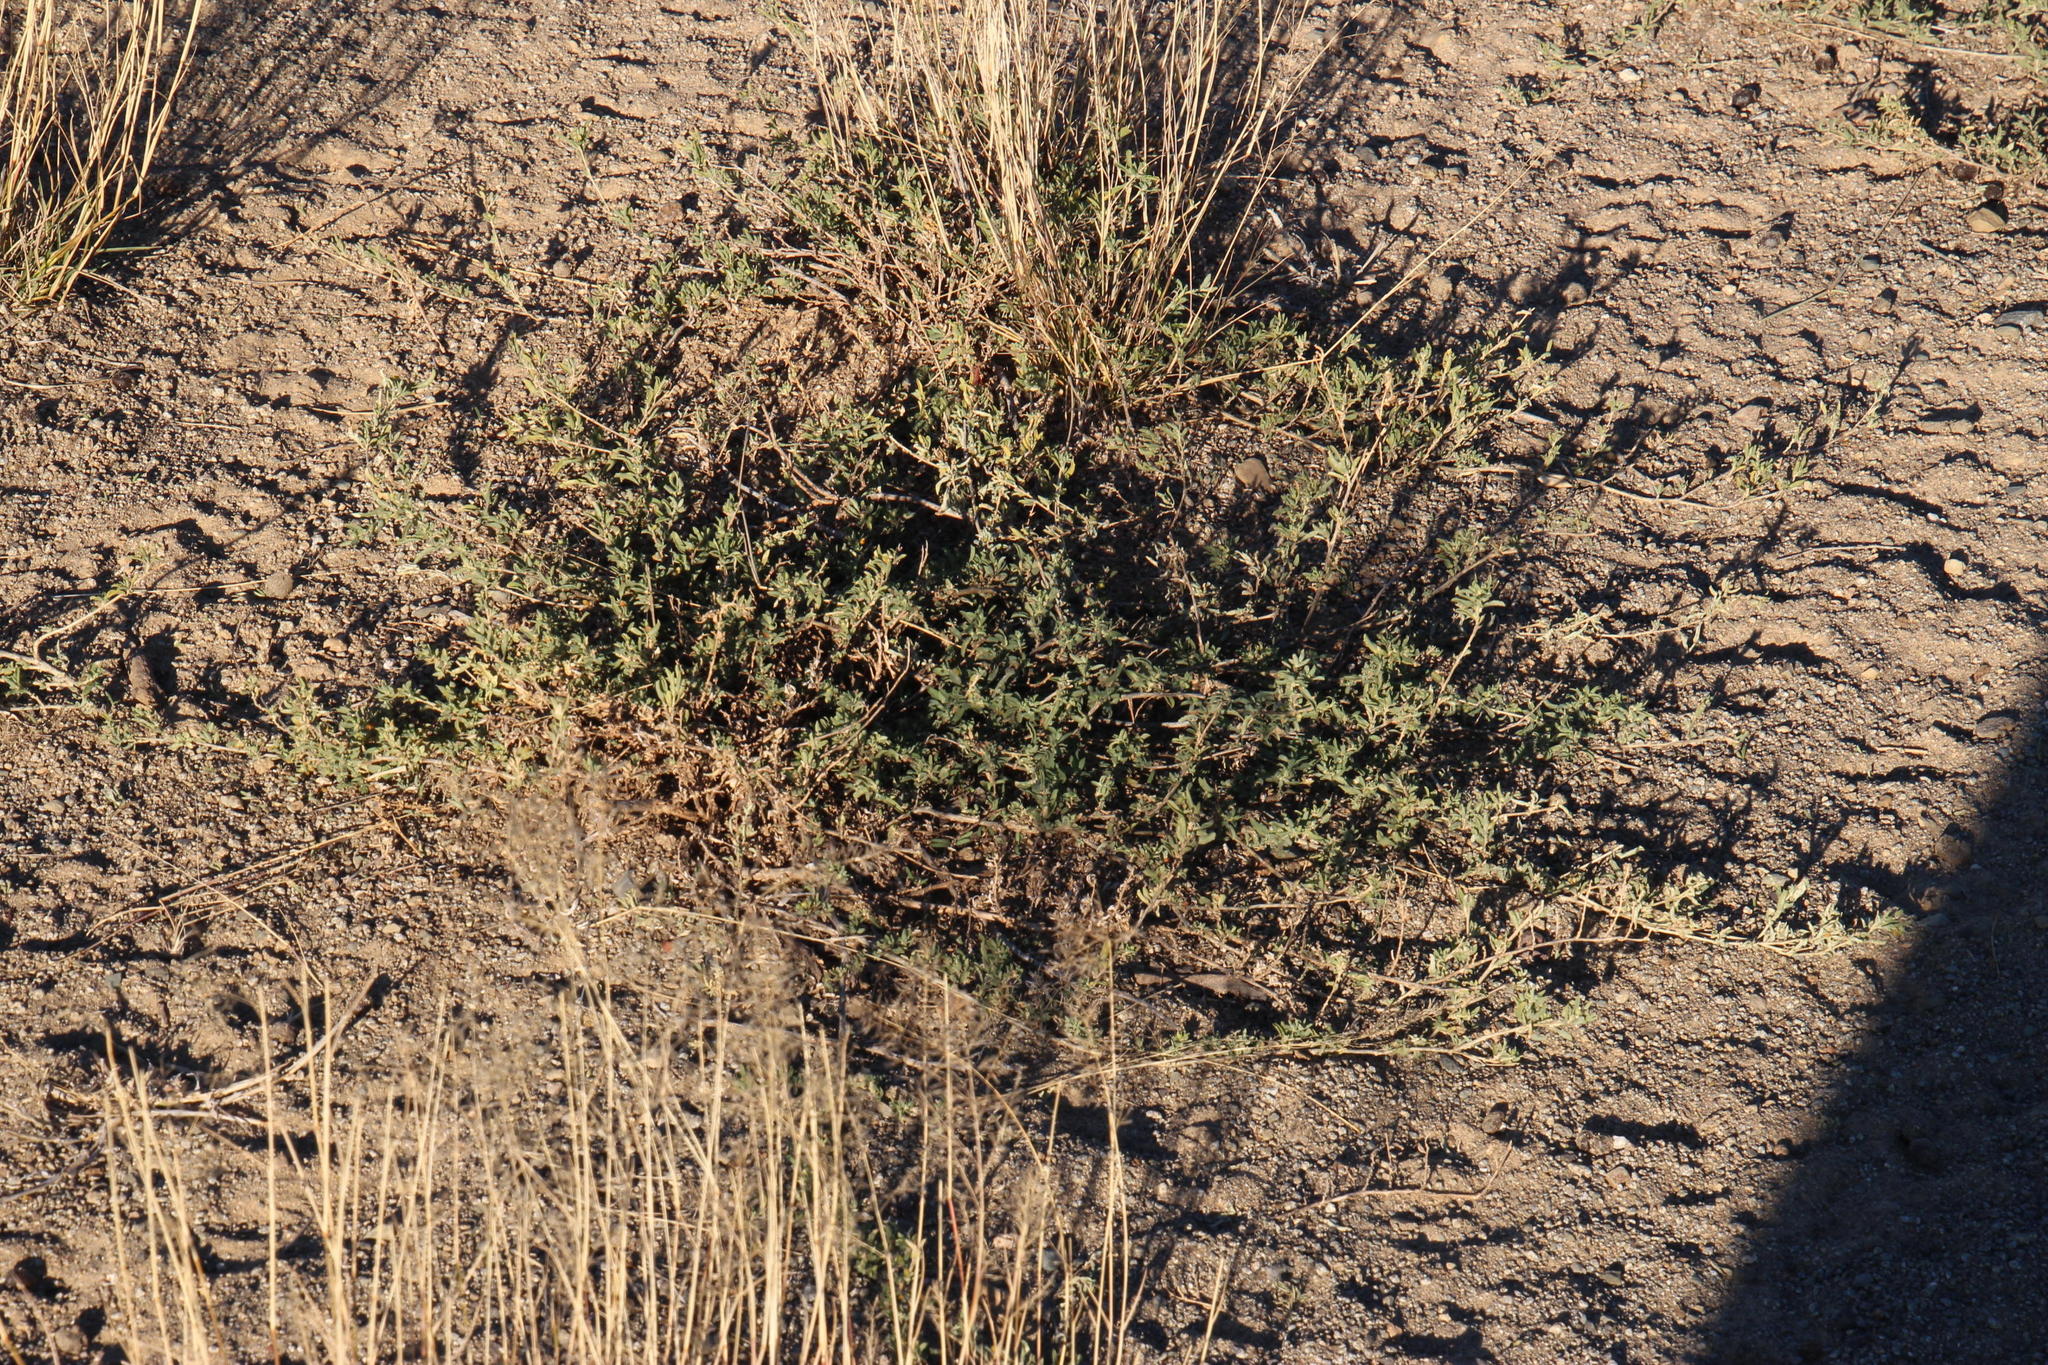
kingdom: Plantae
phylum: Tracheophyta
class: Magnoliopsida
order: Caryophyllales
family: Amaranthaceae
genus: Atriplex
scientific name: Atriplex semibaccata
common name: Australian saltbush
